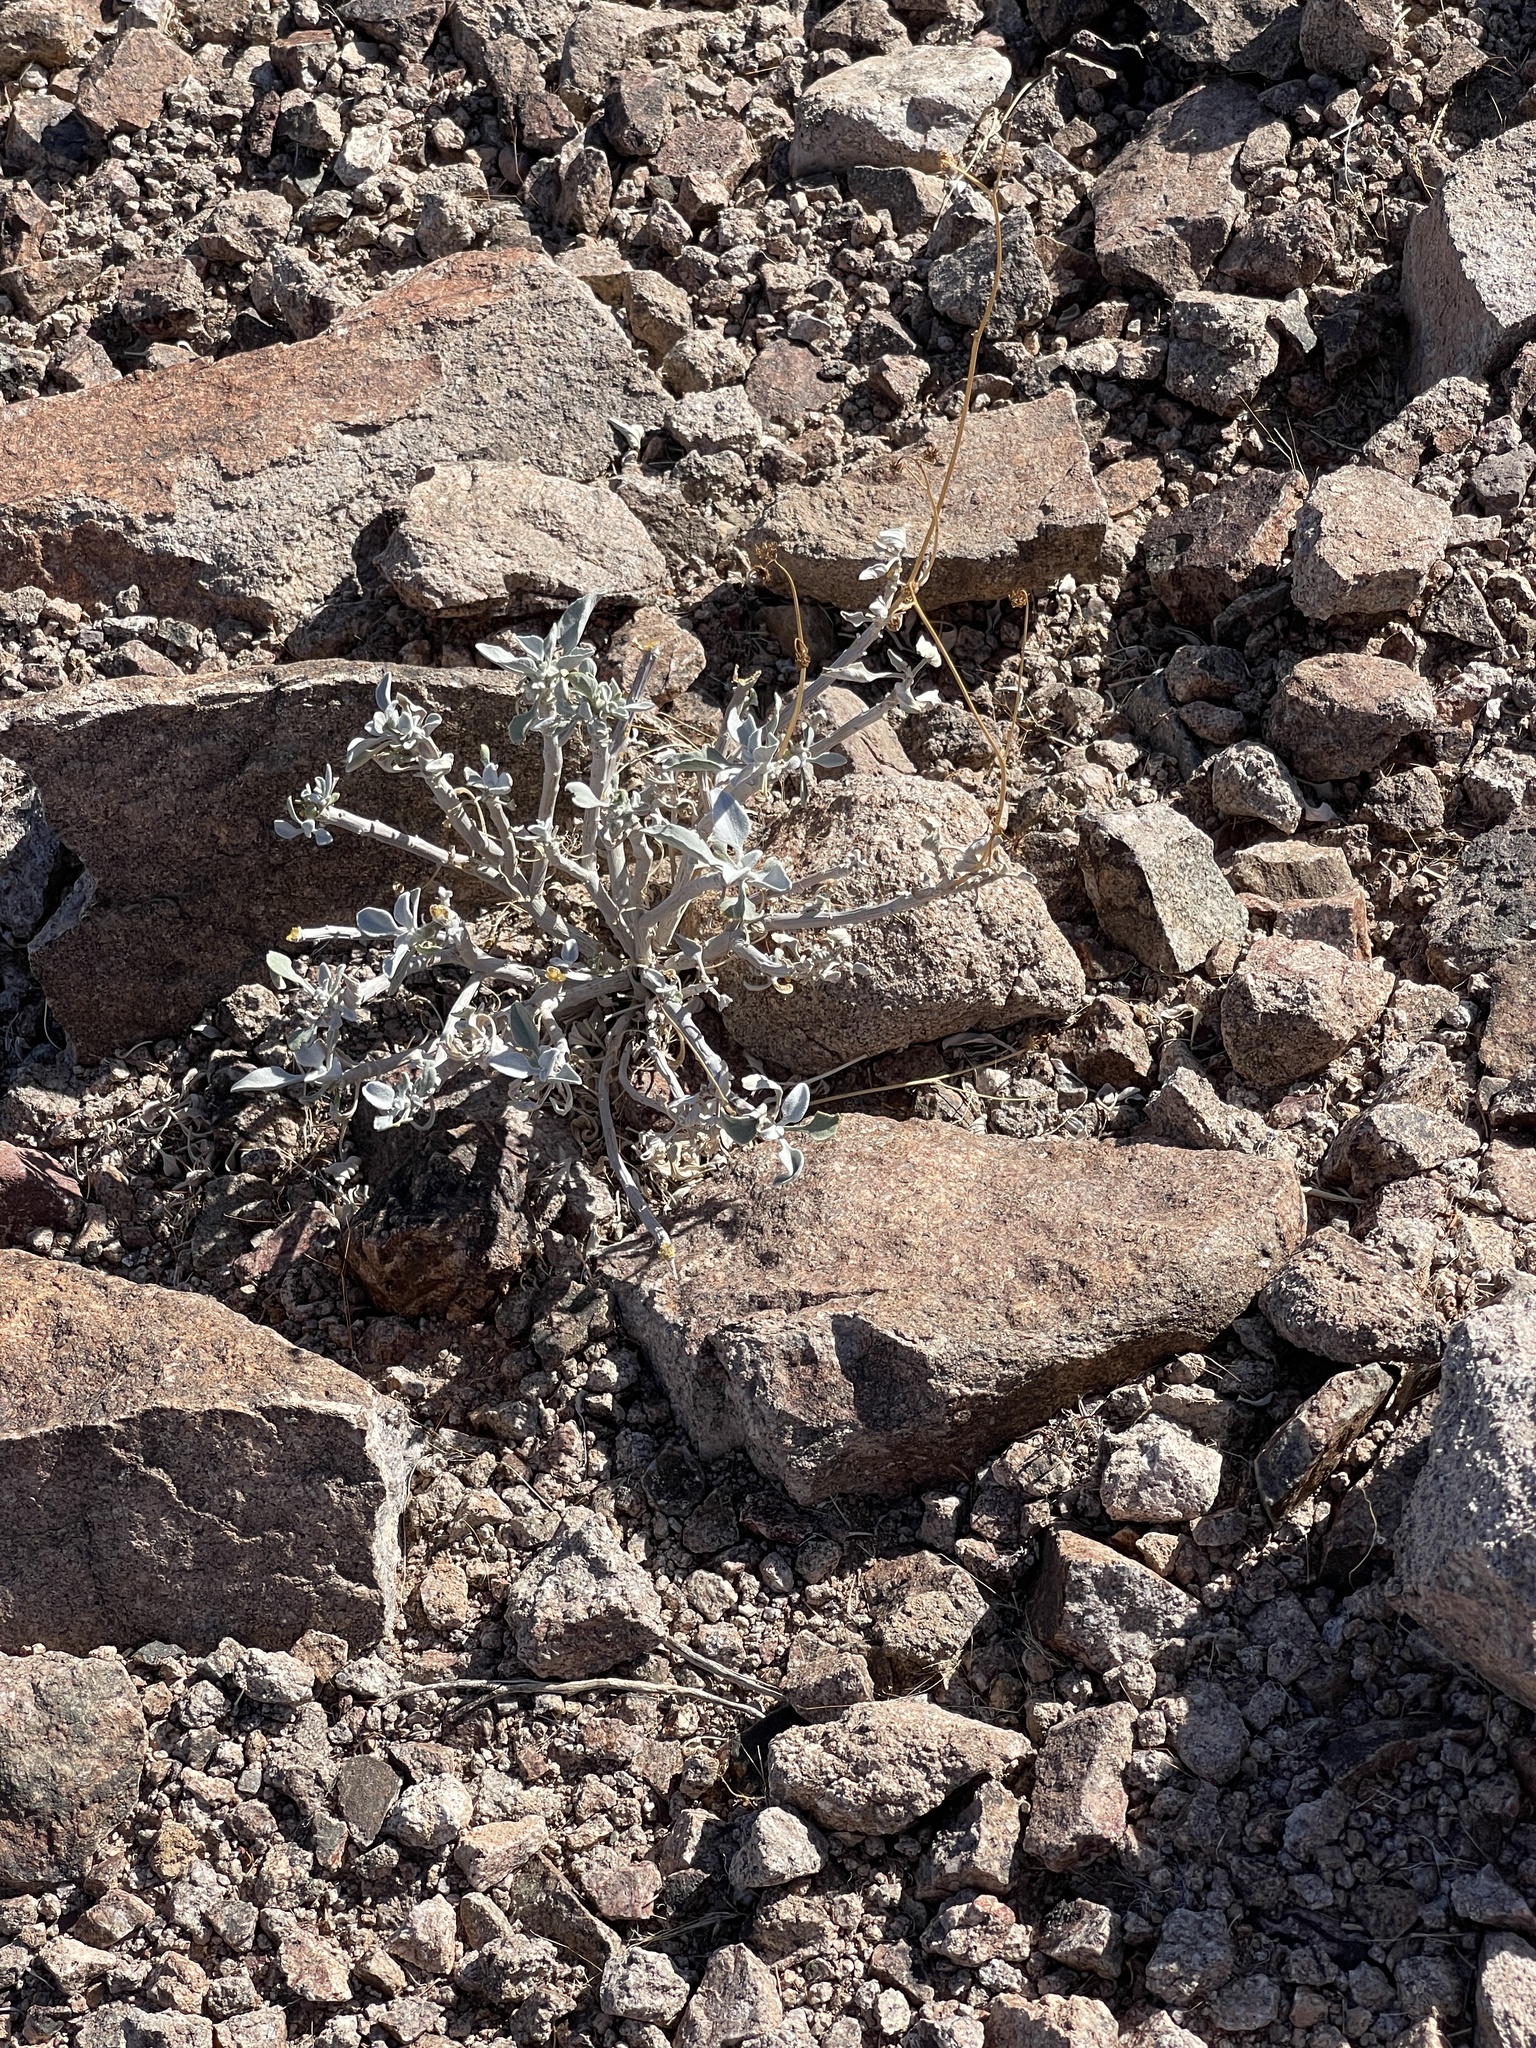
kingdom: Plantae
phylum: Tracheophyta
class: Magnoliopsida
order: Asterales
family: Asteraceae
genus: Encelia
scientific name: Encelia farinosa
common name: Brittlebush
